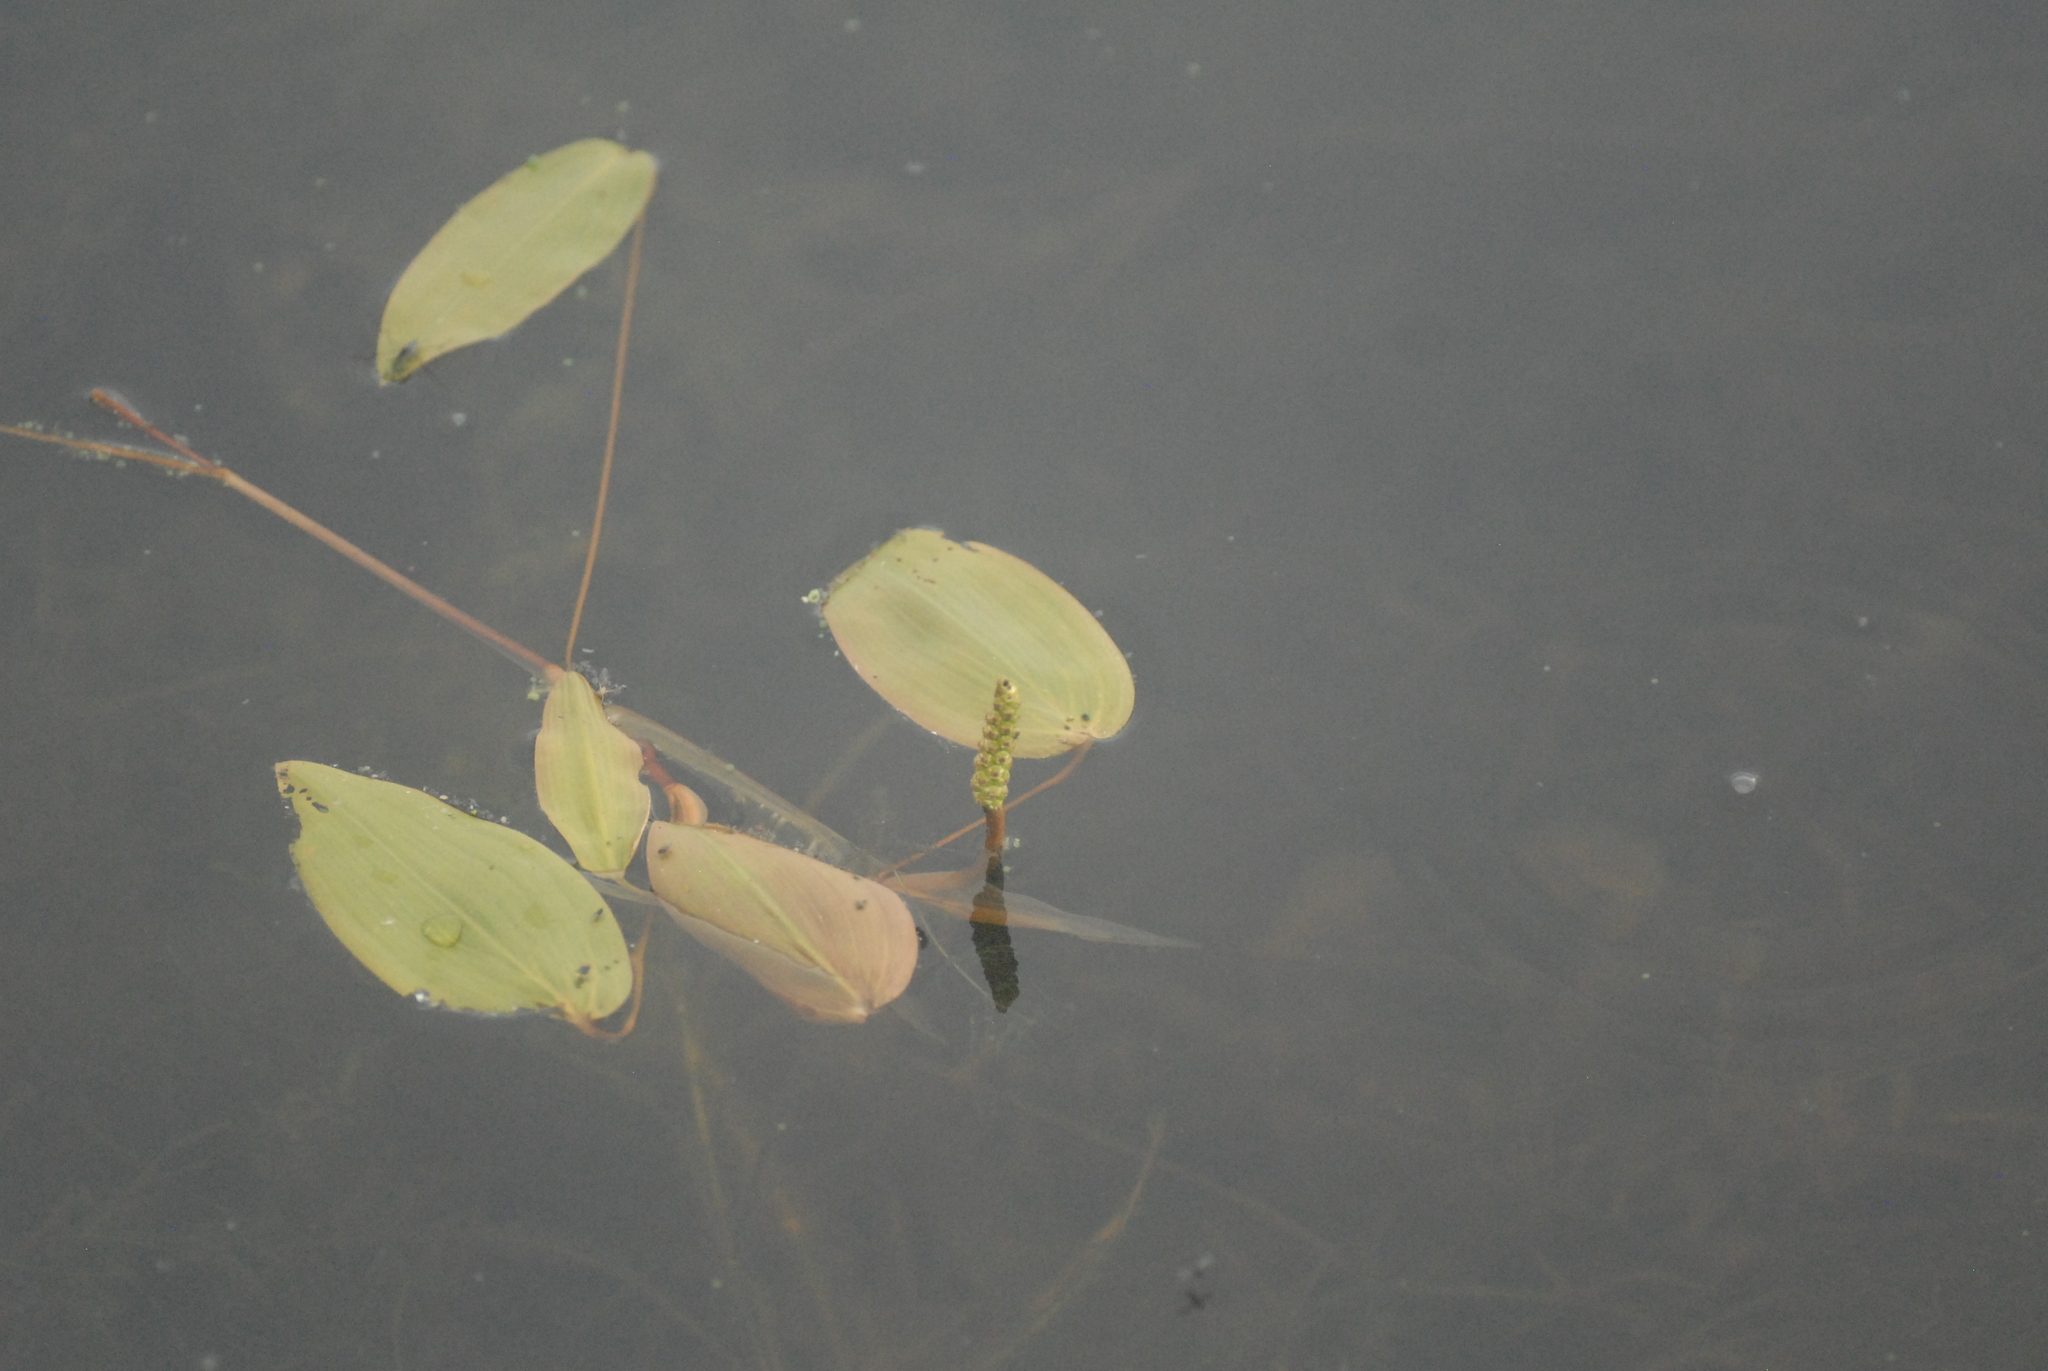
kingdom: Plantae
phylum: Tracheophyta
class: Liliopsida
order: Alismatales
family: Potamogetonaceae
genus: Potamogeton
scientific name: Potamogeton natans
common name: Broad-leaved pondweed
